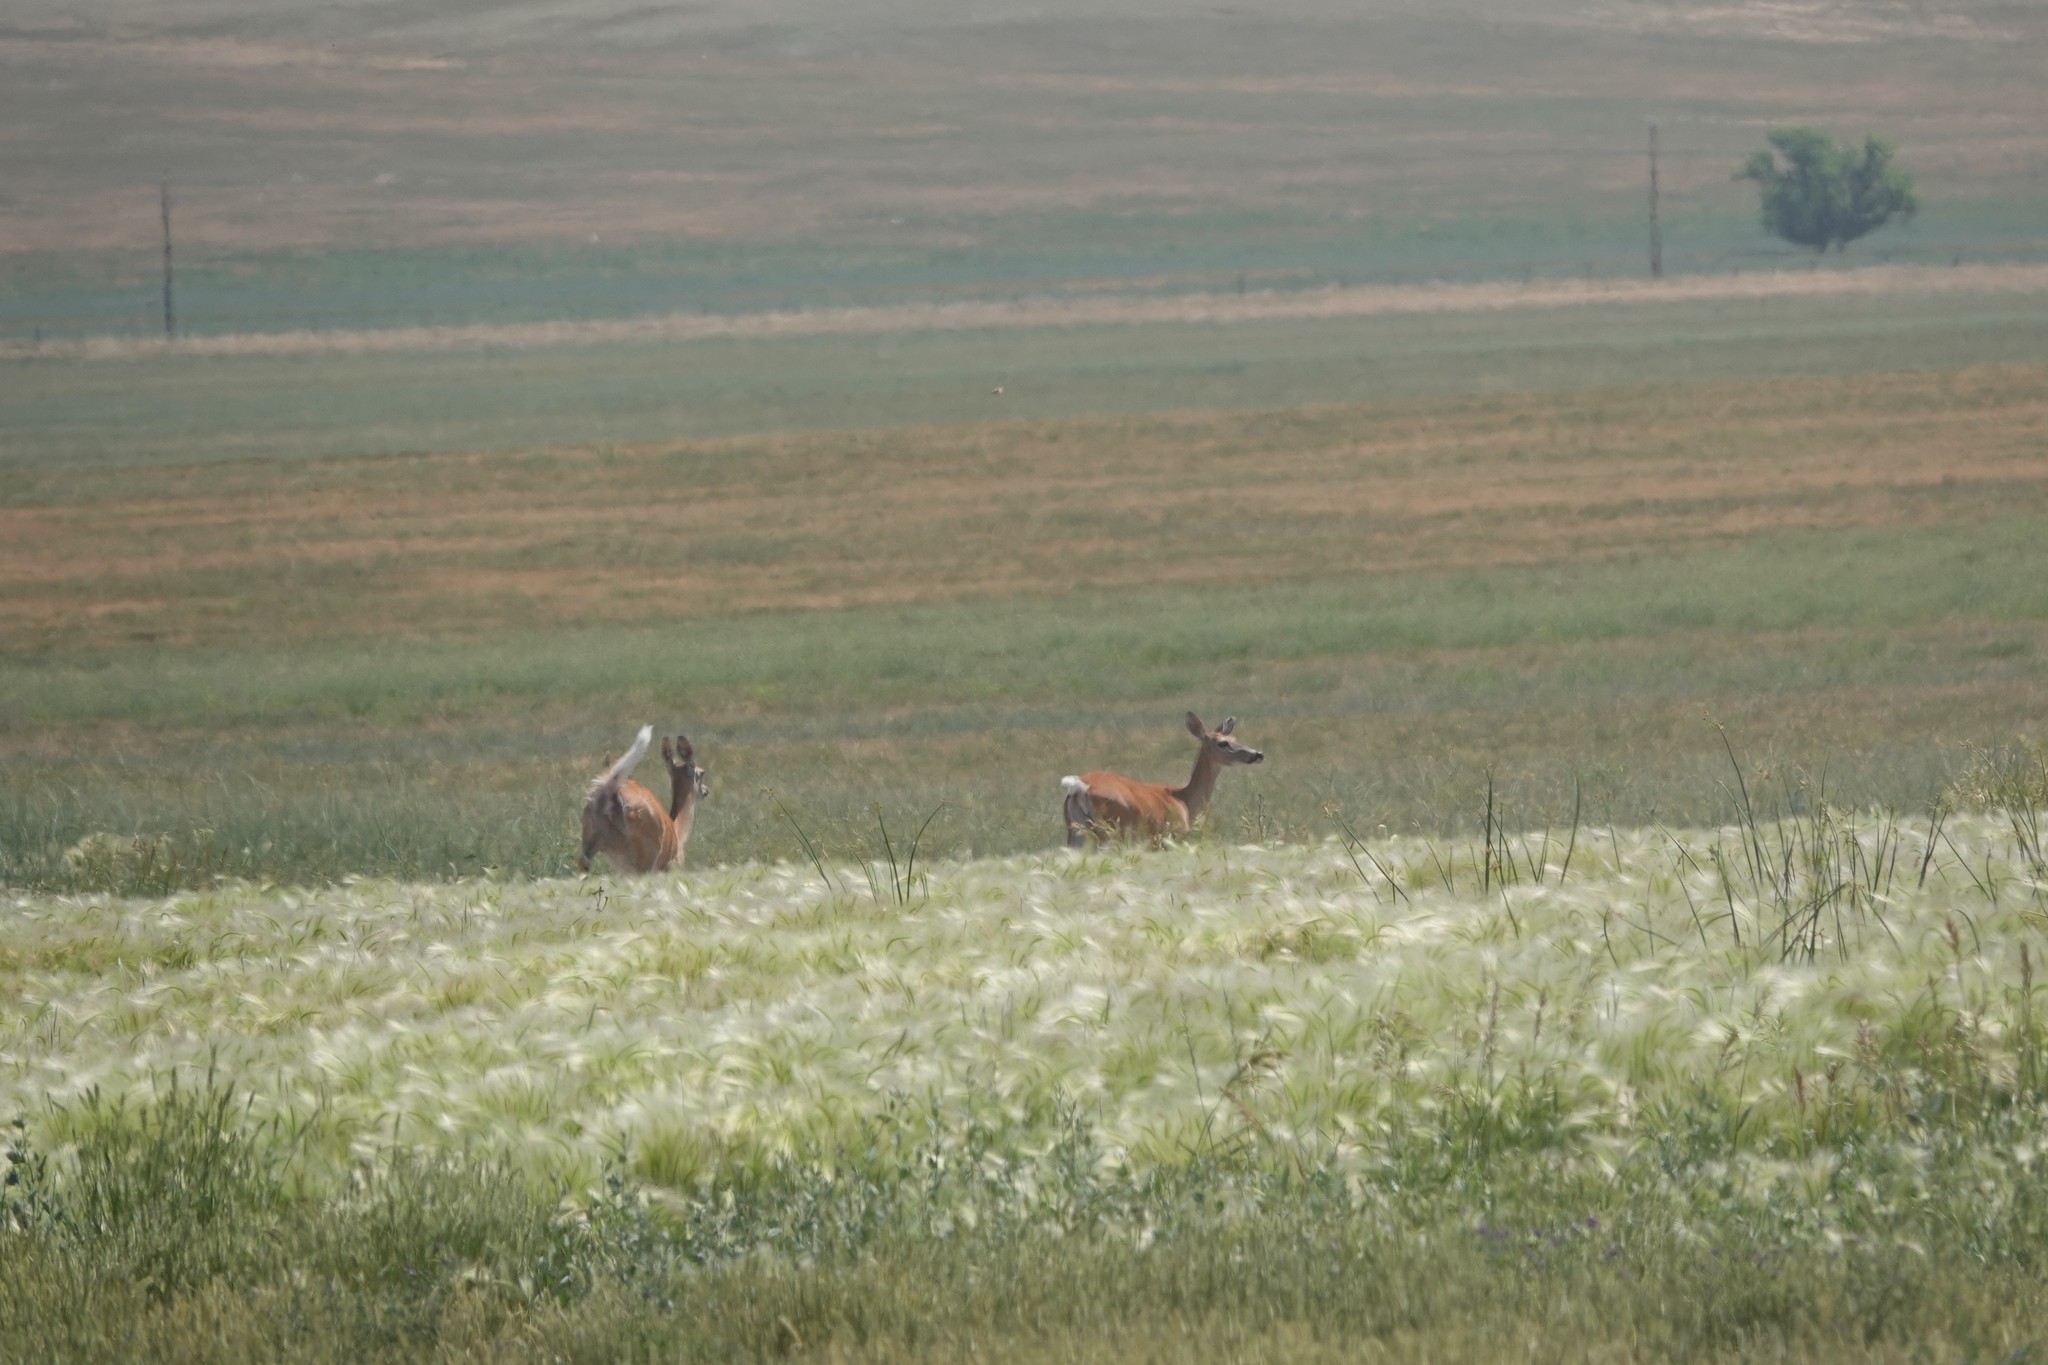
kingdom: Animalia
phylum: Chordata
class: Mammalia
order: Artiodactyla
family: Cervidae
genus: Odocoileus
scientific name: Odocoileus virginianus
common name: White-tailed deer
